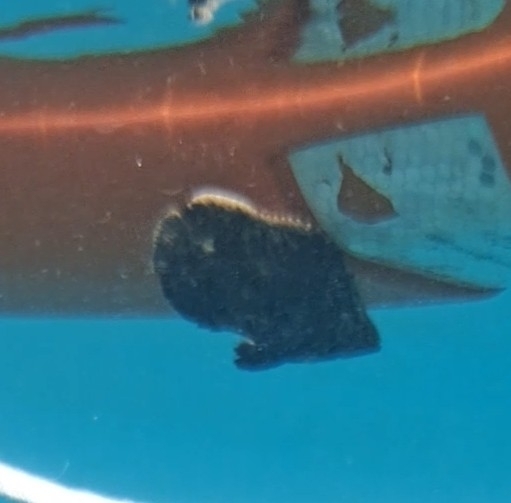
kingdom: Animalia
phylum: Chordata
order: Perciformes
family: Lobotidae
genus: Lobotes
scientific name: Lobotes surinamensis
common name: Atlantic tripletail
